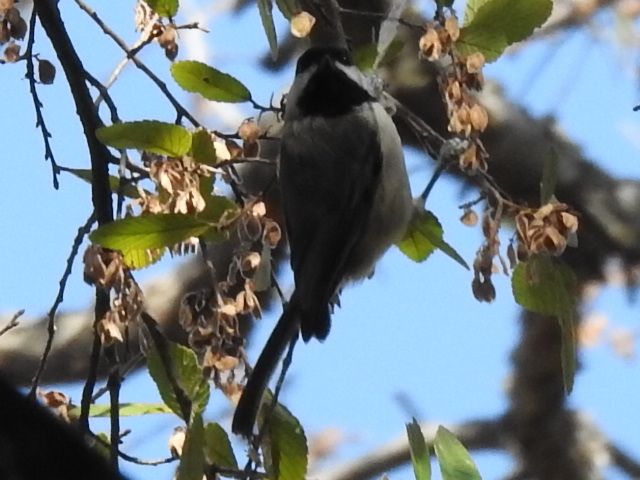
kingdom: Animalia
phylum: Chordata
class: Aves
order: Passeriformes
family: Paridae
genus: Poecile
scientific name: Poecile carolinensis
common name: Carolina chickadee
